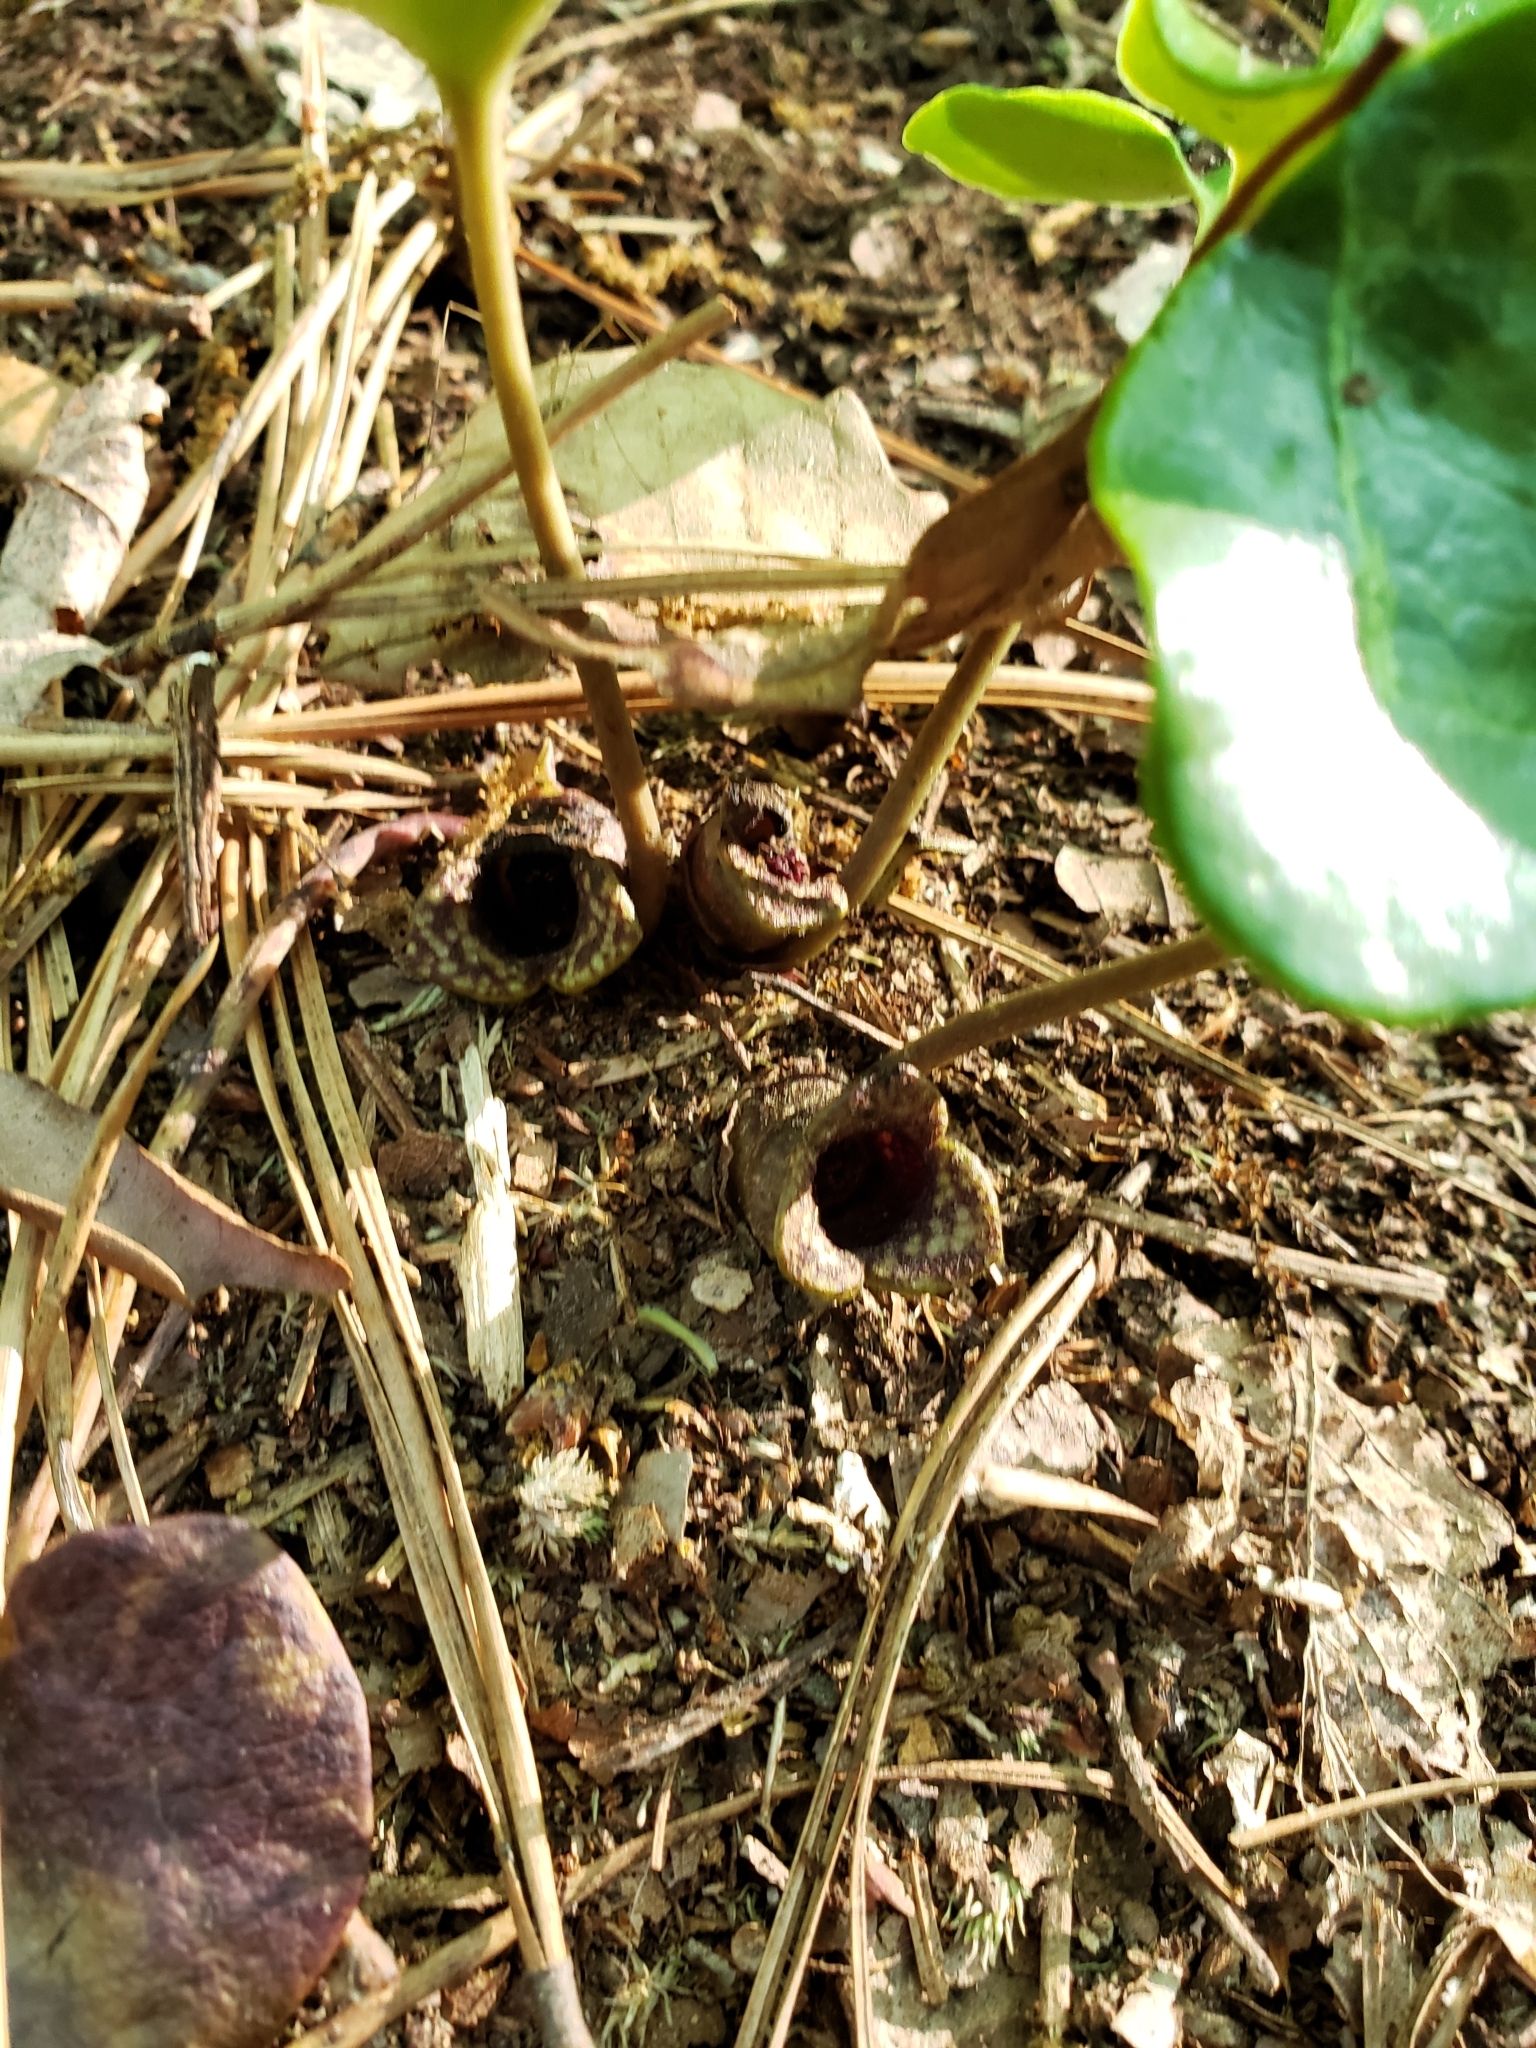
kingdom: Plantae
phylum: Tracheophyta
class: Magnoliopsida
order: Piperales
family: Aristolochiaceae
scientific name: Aristolochiaceae
